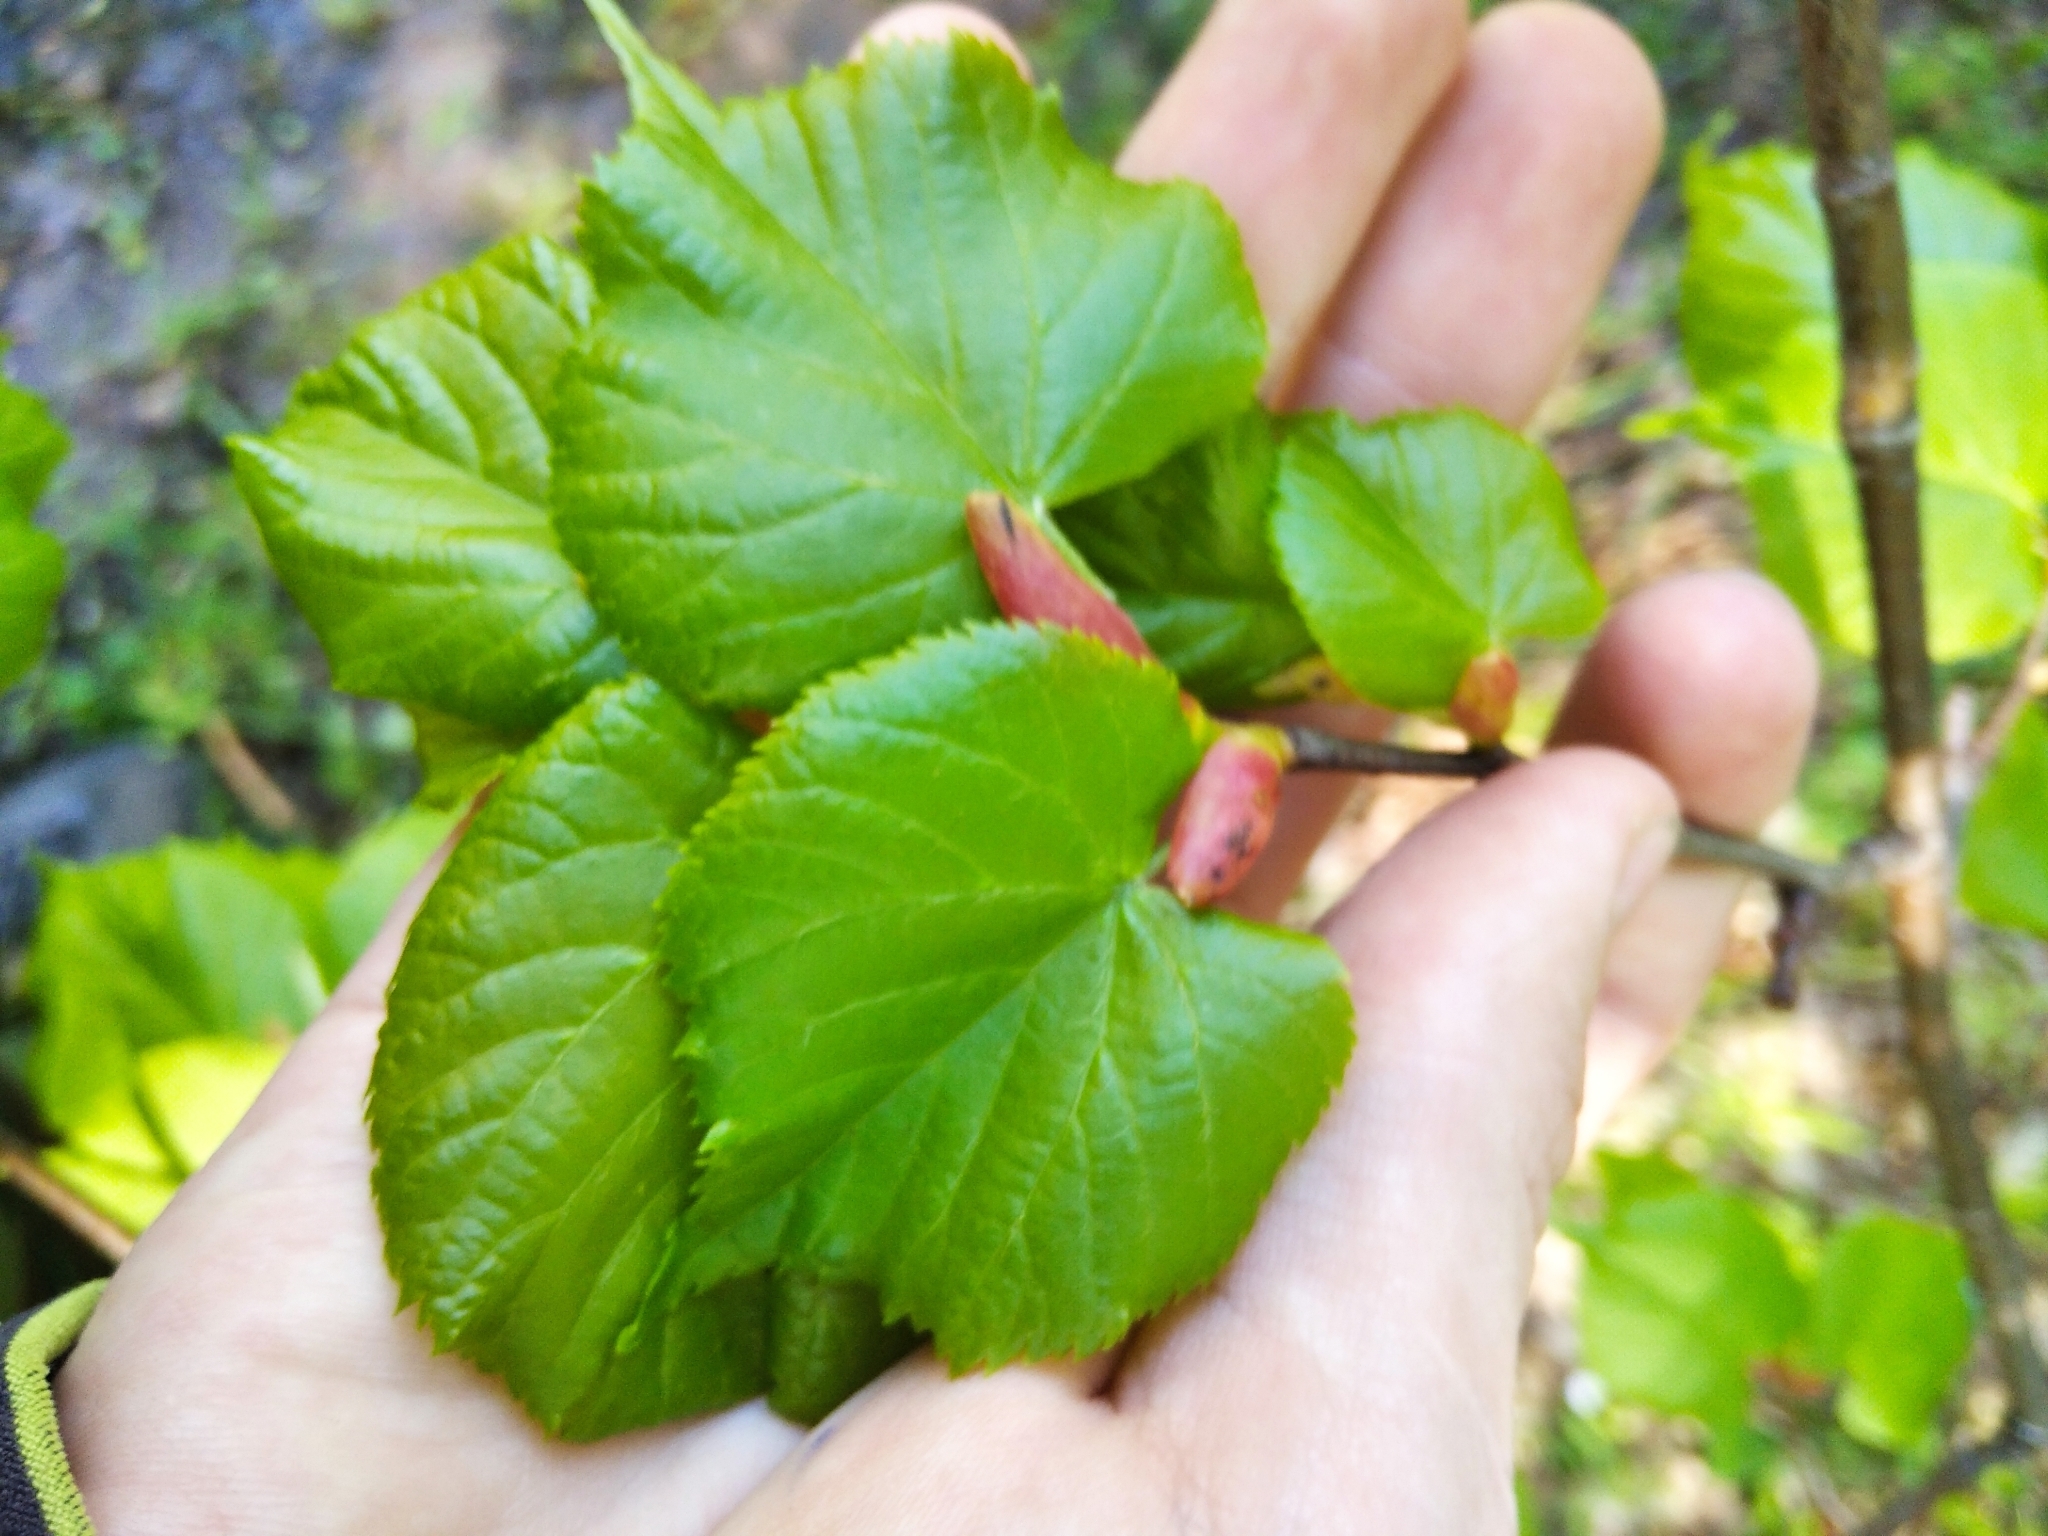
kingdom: Plantae
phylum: Tracheophyta
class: Magnoliopsida
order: Malvales
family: Malvaceae
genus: Tilia
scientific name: Tilia cordata
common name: Small-leaved lime
